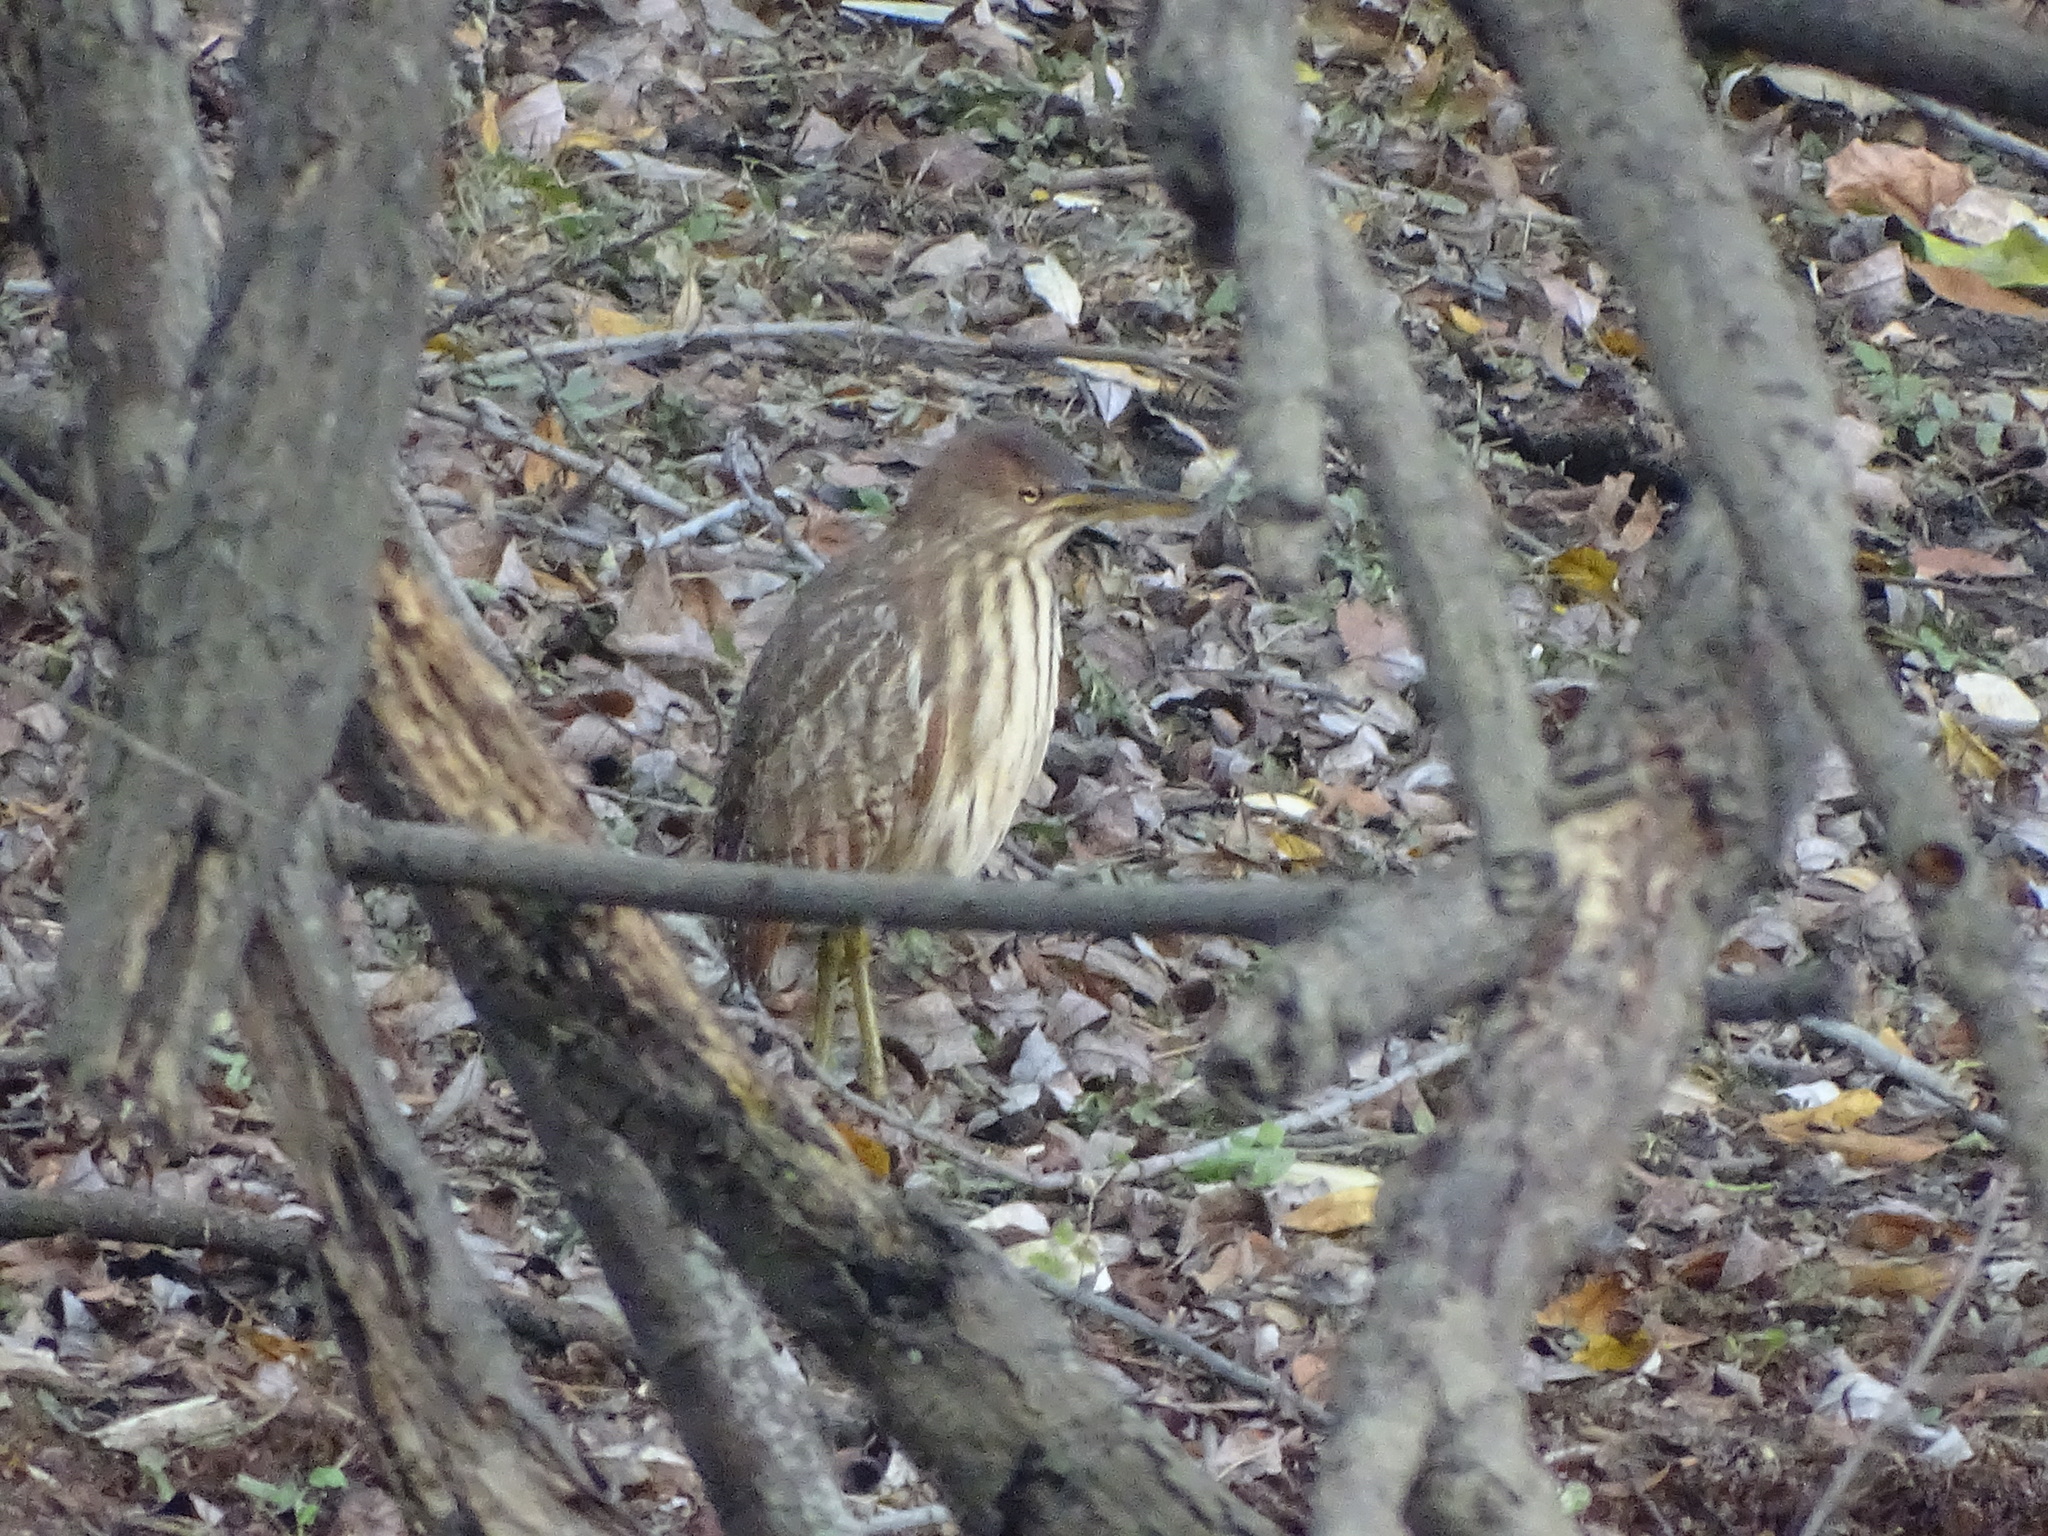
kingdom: Animalia
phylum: Chordata
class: Aves
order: Pelecaniformes
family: Ardeidae
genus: Ixobrychus
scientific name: Ixobrychus cinnamomeus
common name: Cinnamon bittern
